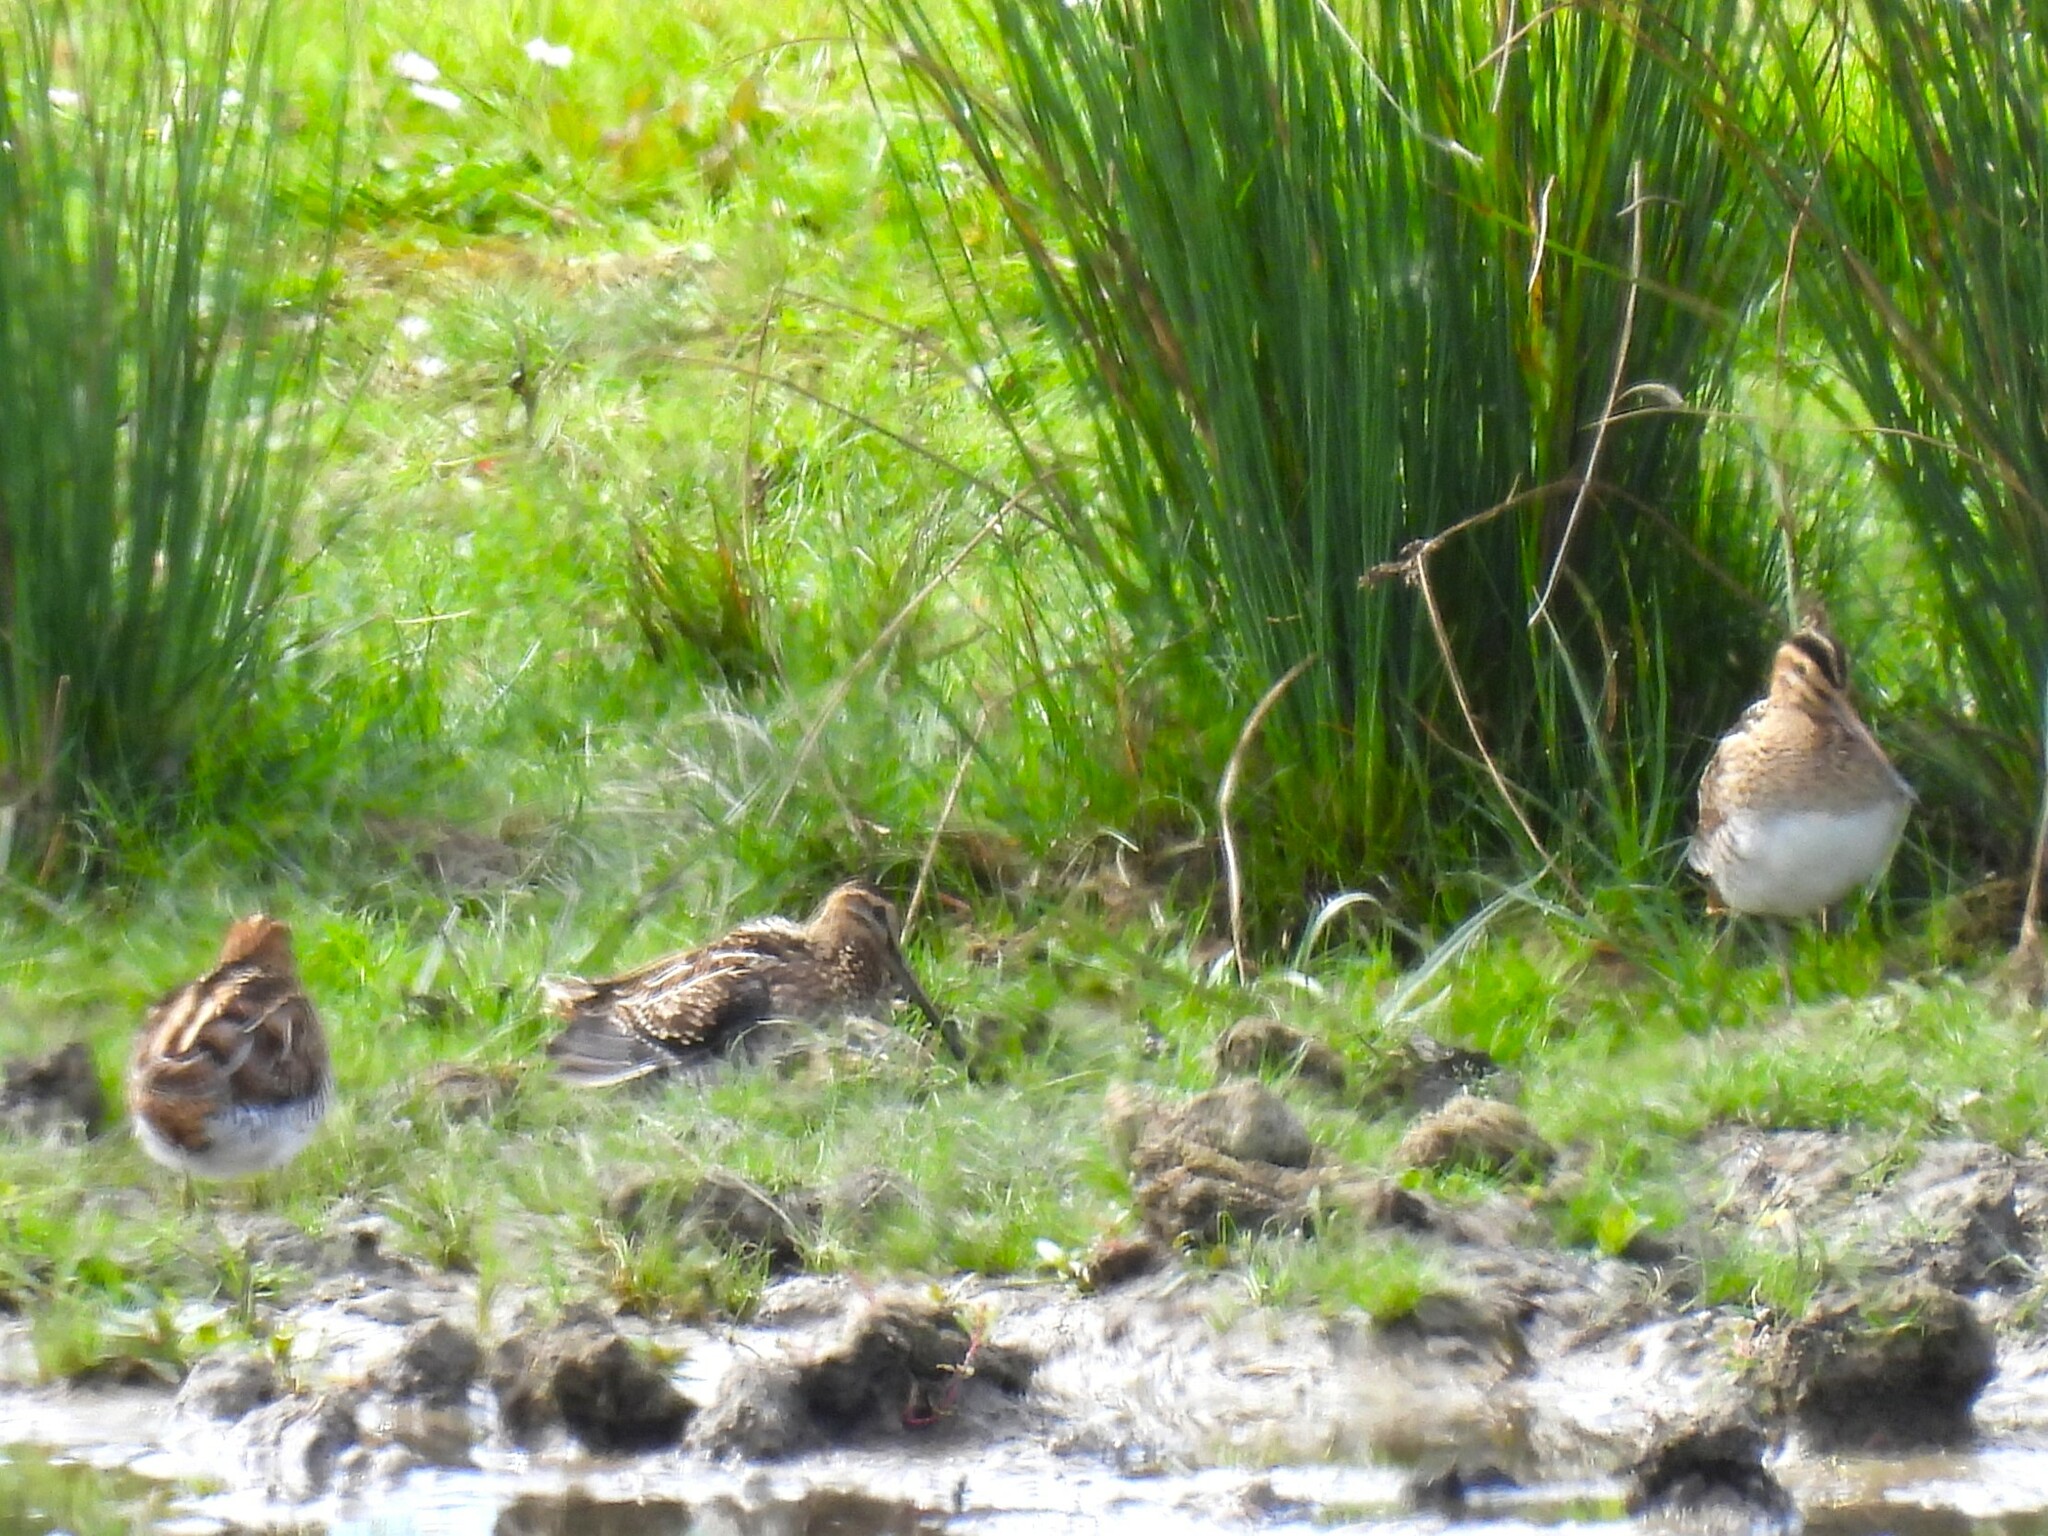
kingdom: Animalia
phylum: Chordata
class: Aves
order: Charadriiformes
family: Scolopacidae
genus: Gallinago
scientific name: Gallinago gallinago
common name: Common snipe
